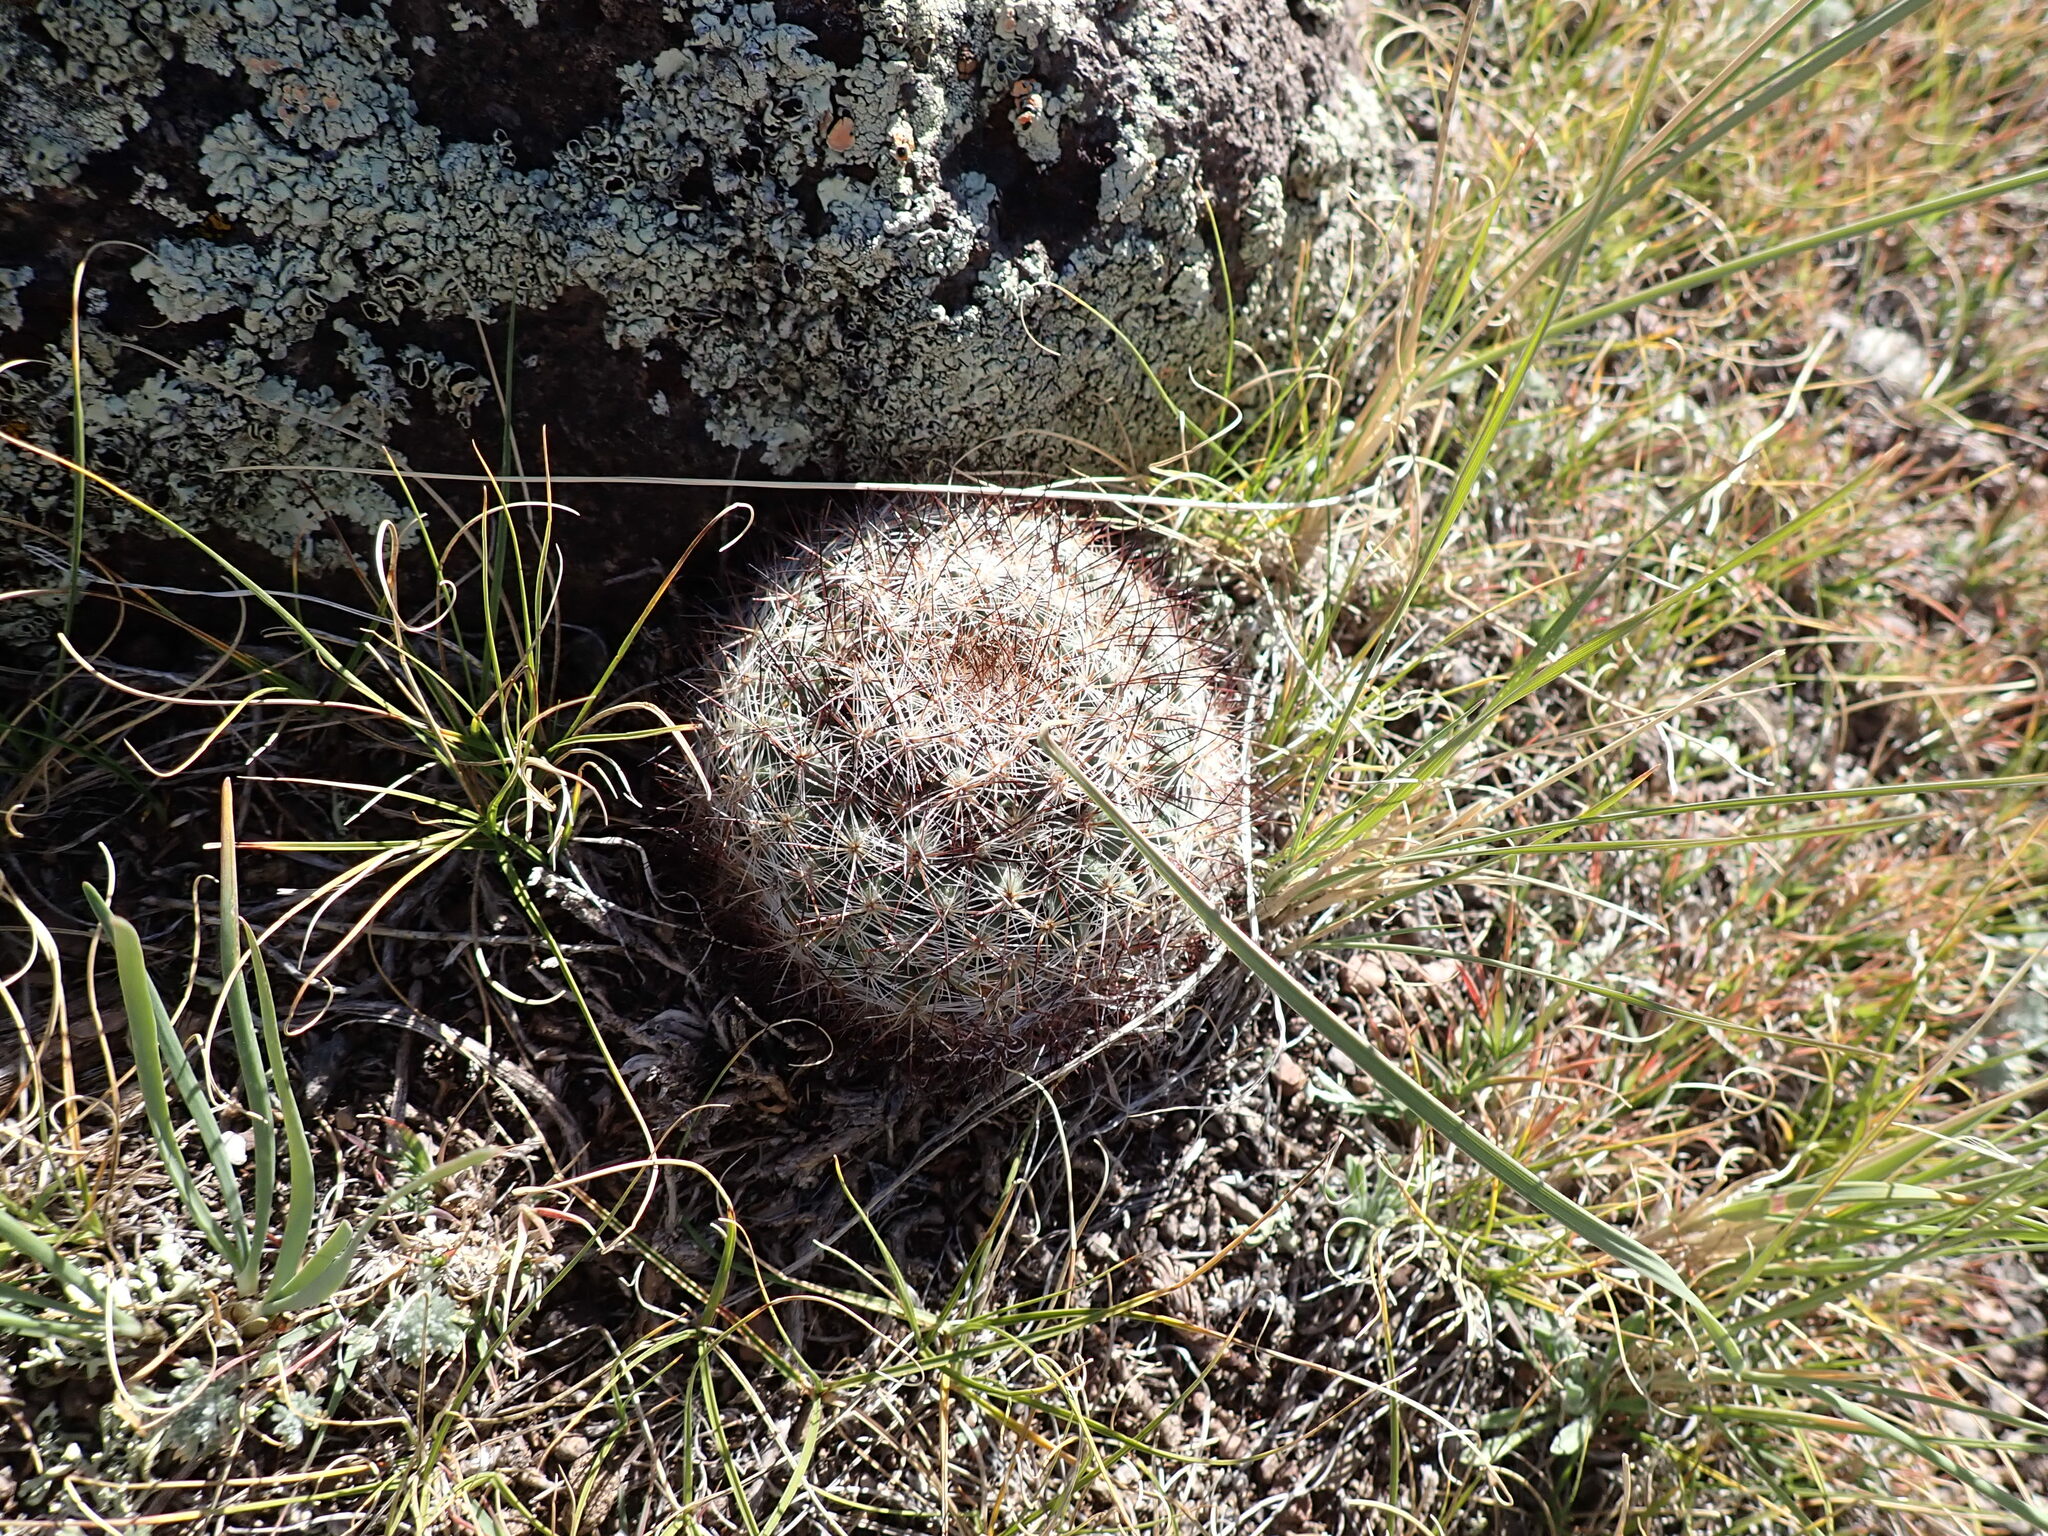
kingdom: Plantae
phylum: Tracheophyta
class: Magnoliopsida
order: Caryophyllales
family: Cactaceae
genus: Pediocactus
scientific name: Pediocactus simpsonii
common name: Simpson's hedgehog cactus
